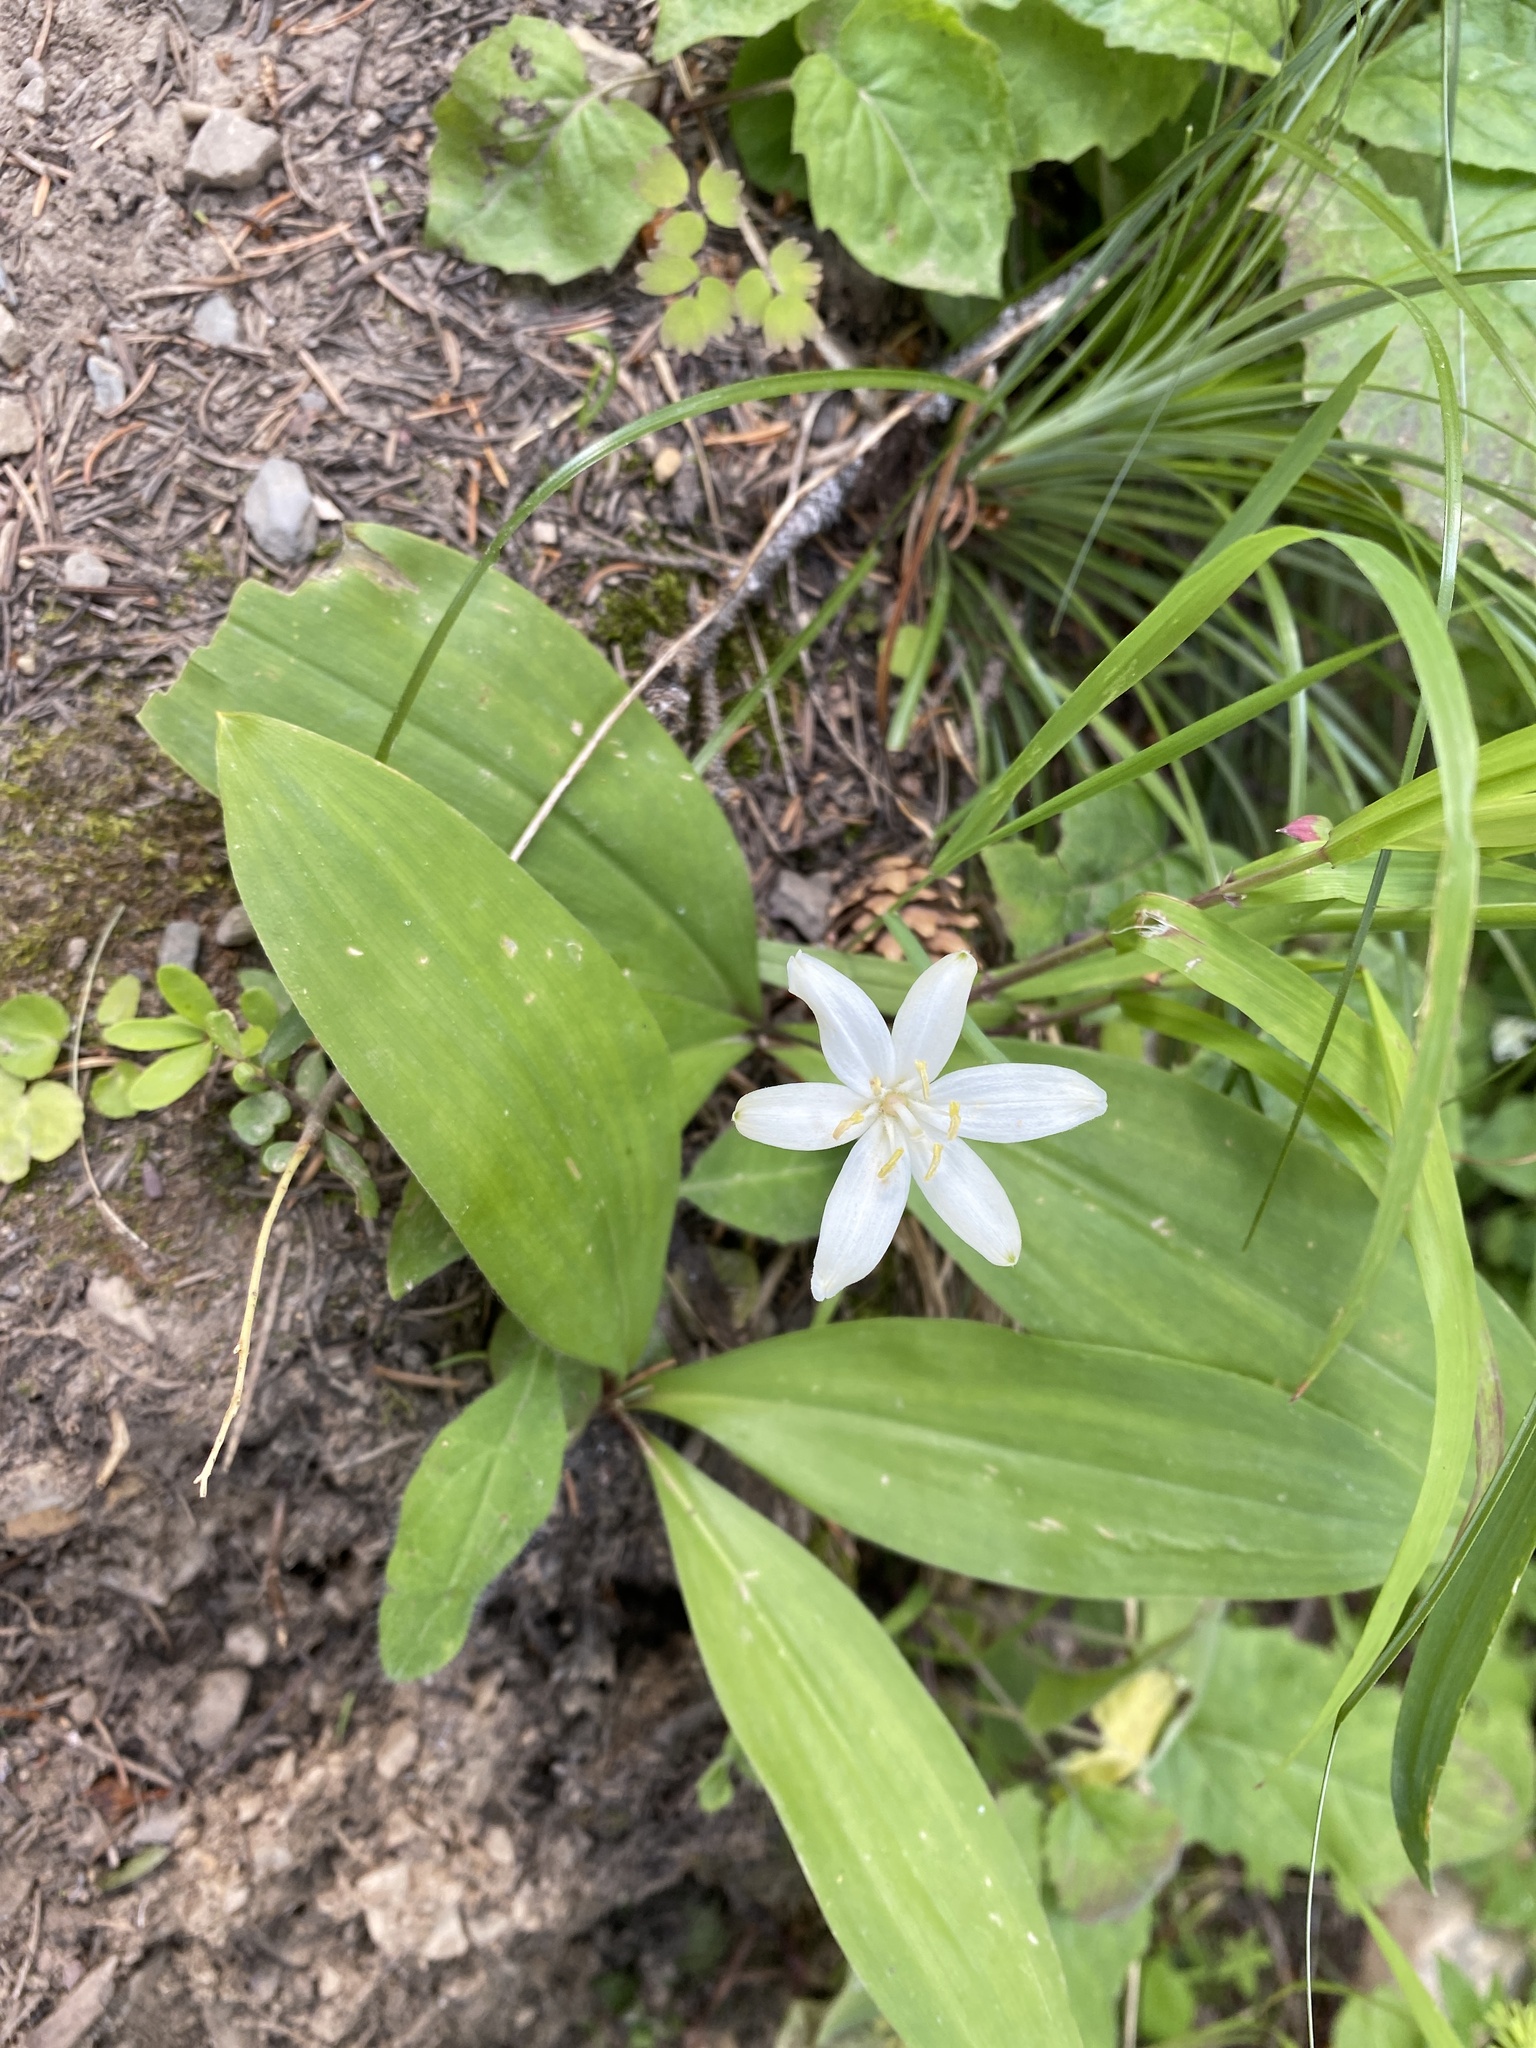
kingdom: Plantae
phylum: Tracheophyta
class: Liliopsida
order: Liliales
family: Liliaceae
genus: Clintonia
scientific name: Clintonia uniflora
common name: Queen's cup
